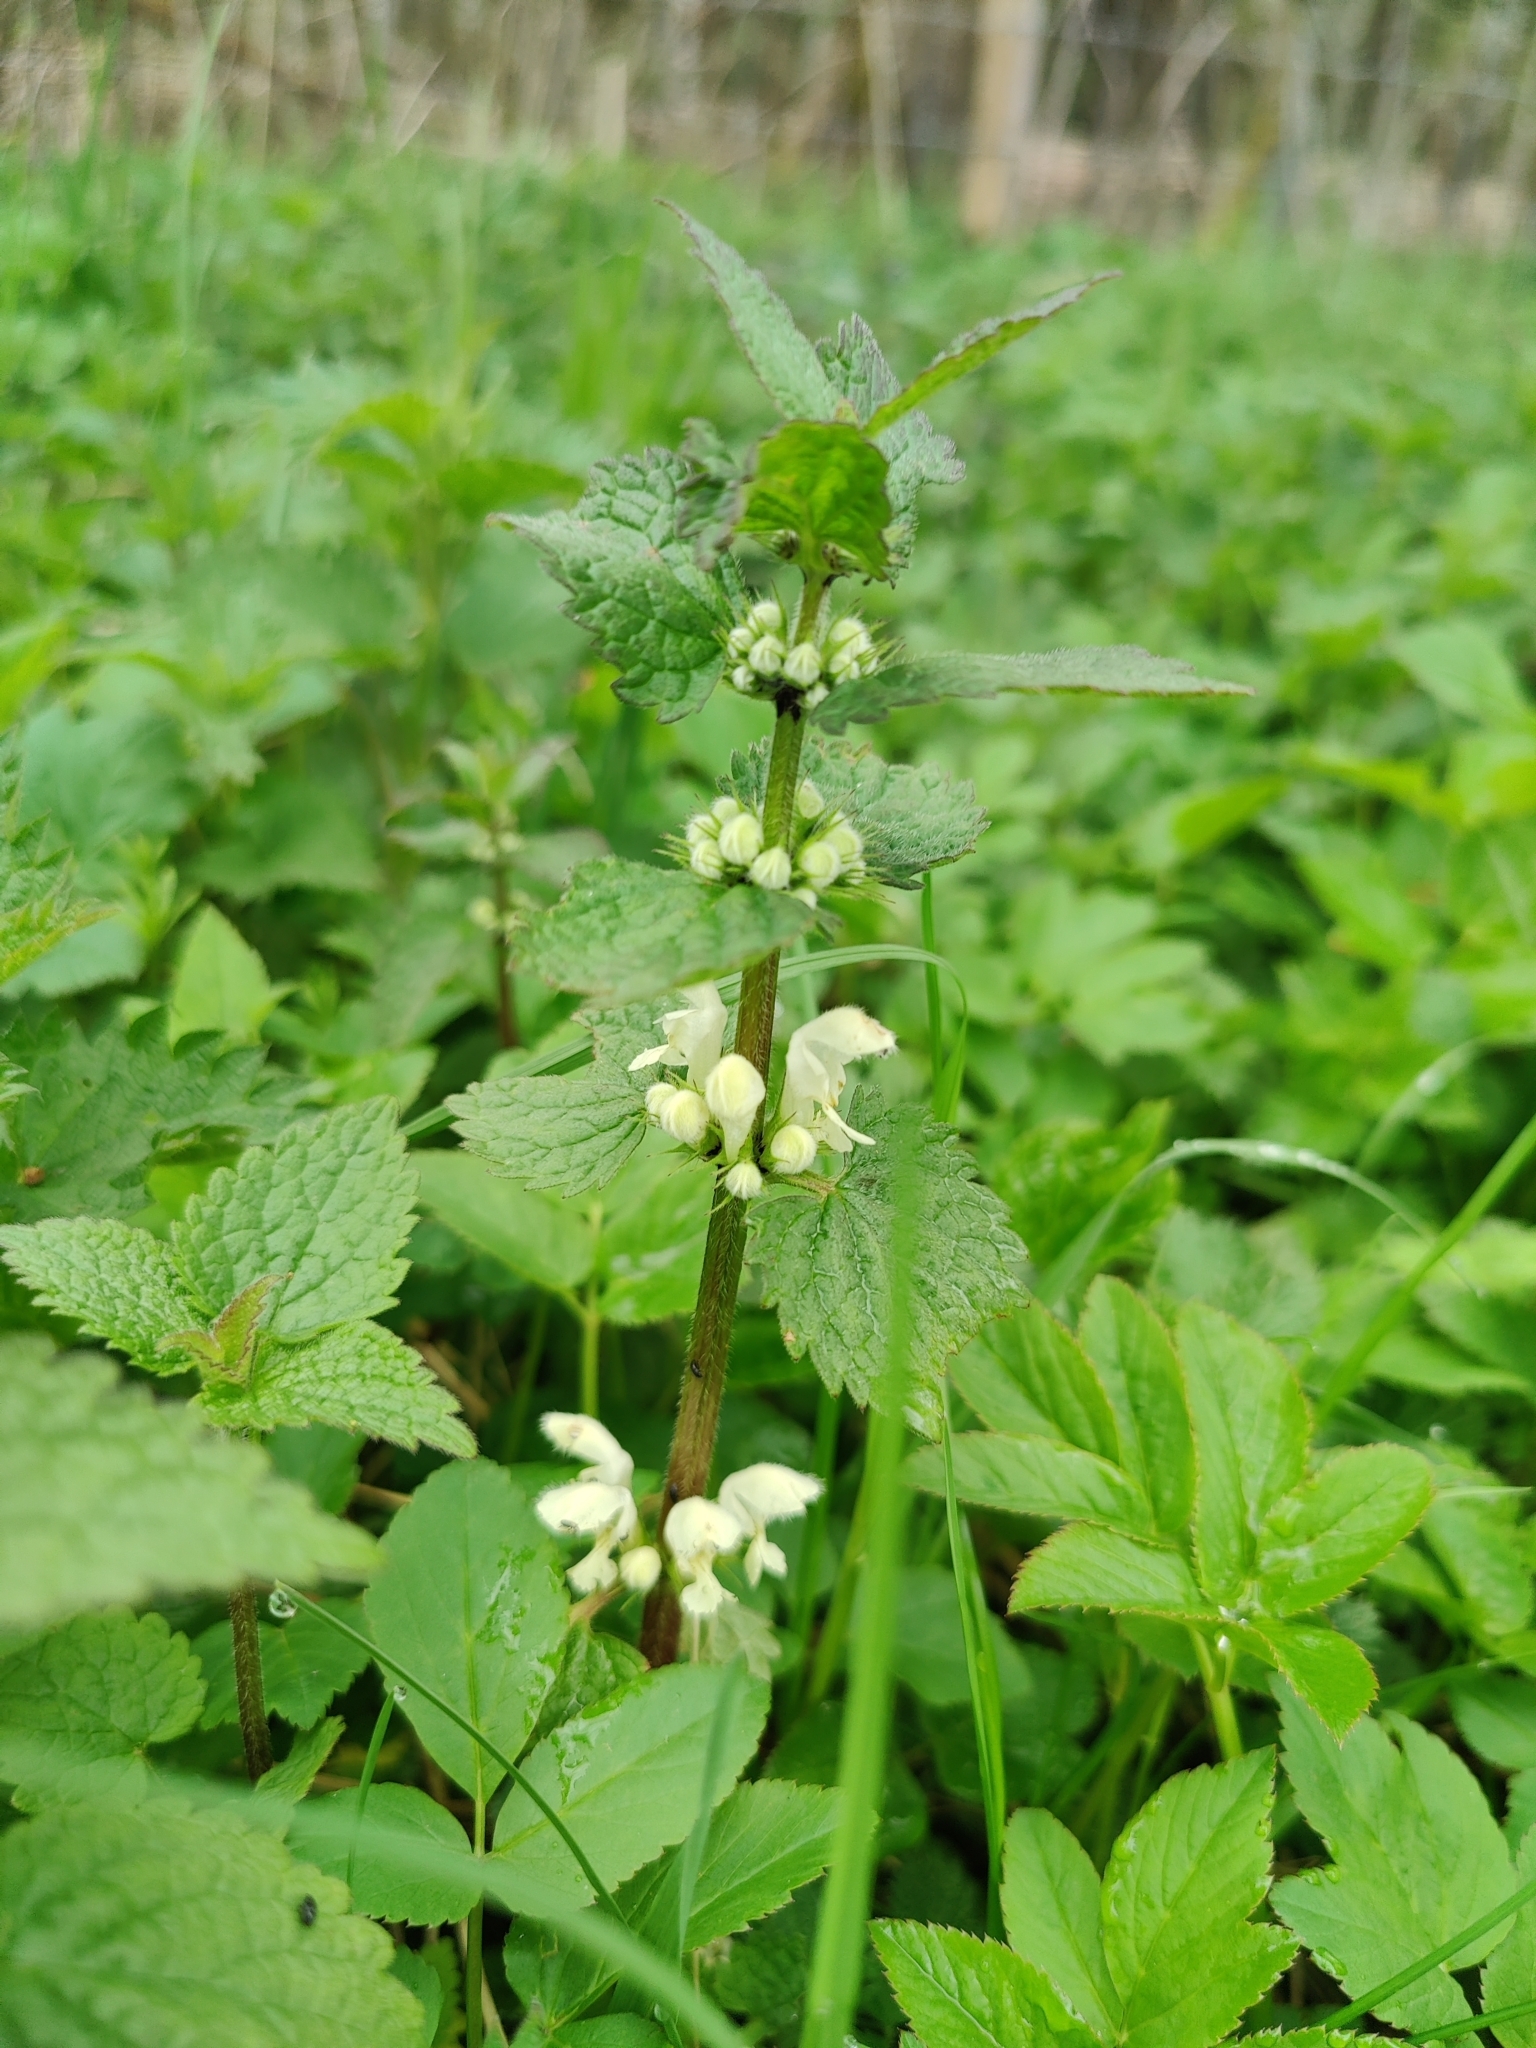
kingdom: Plantae
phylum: Tracheophyta
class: Magnoliopsida
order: Lamiales
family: Lamiaceae
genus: Lamium
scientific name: Lamium album
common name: White dead-nettle
